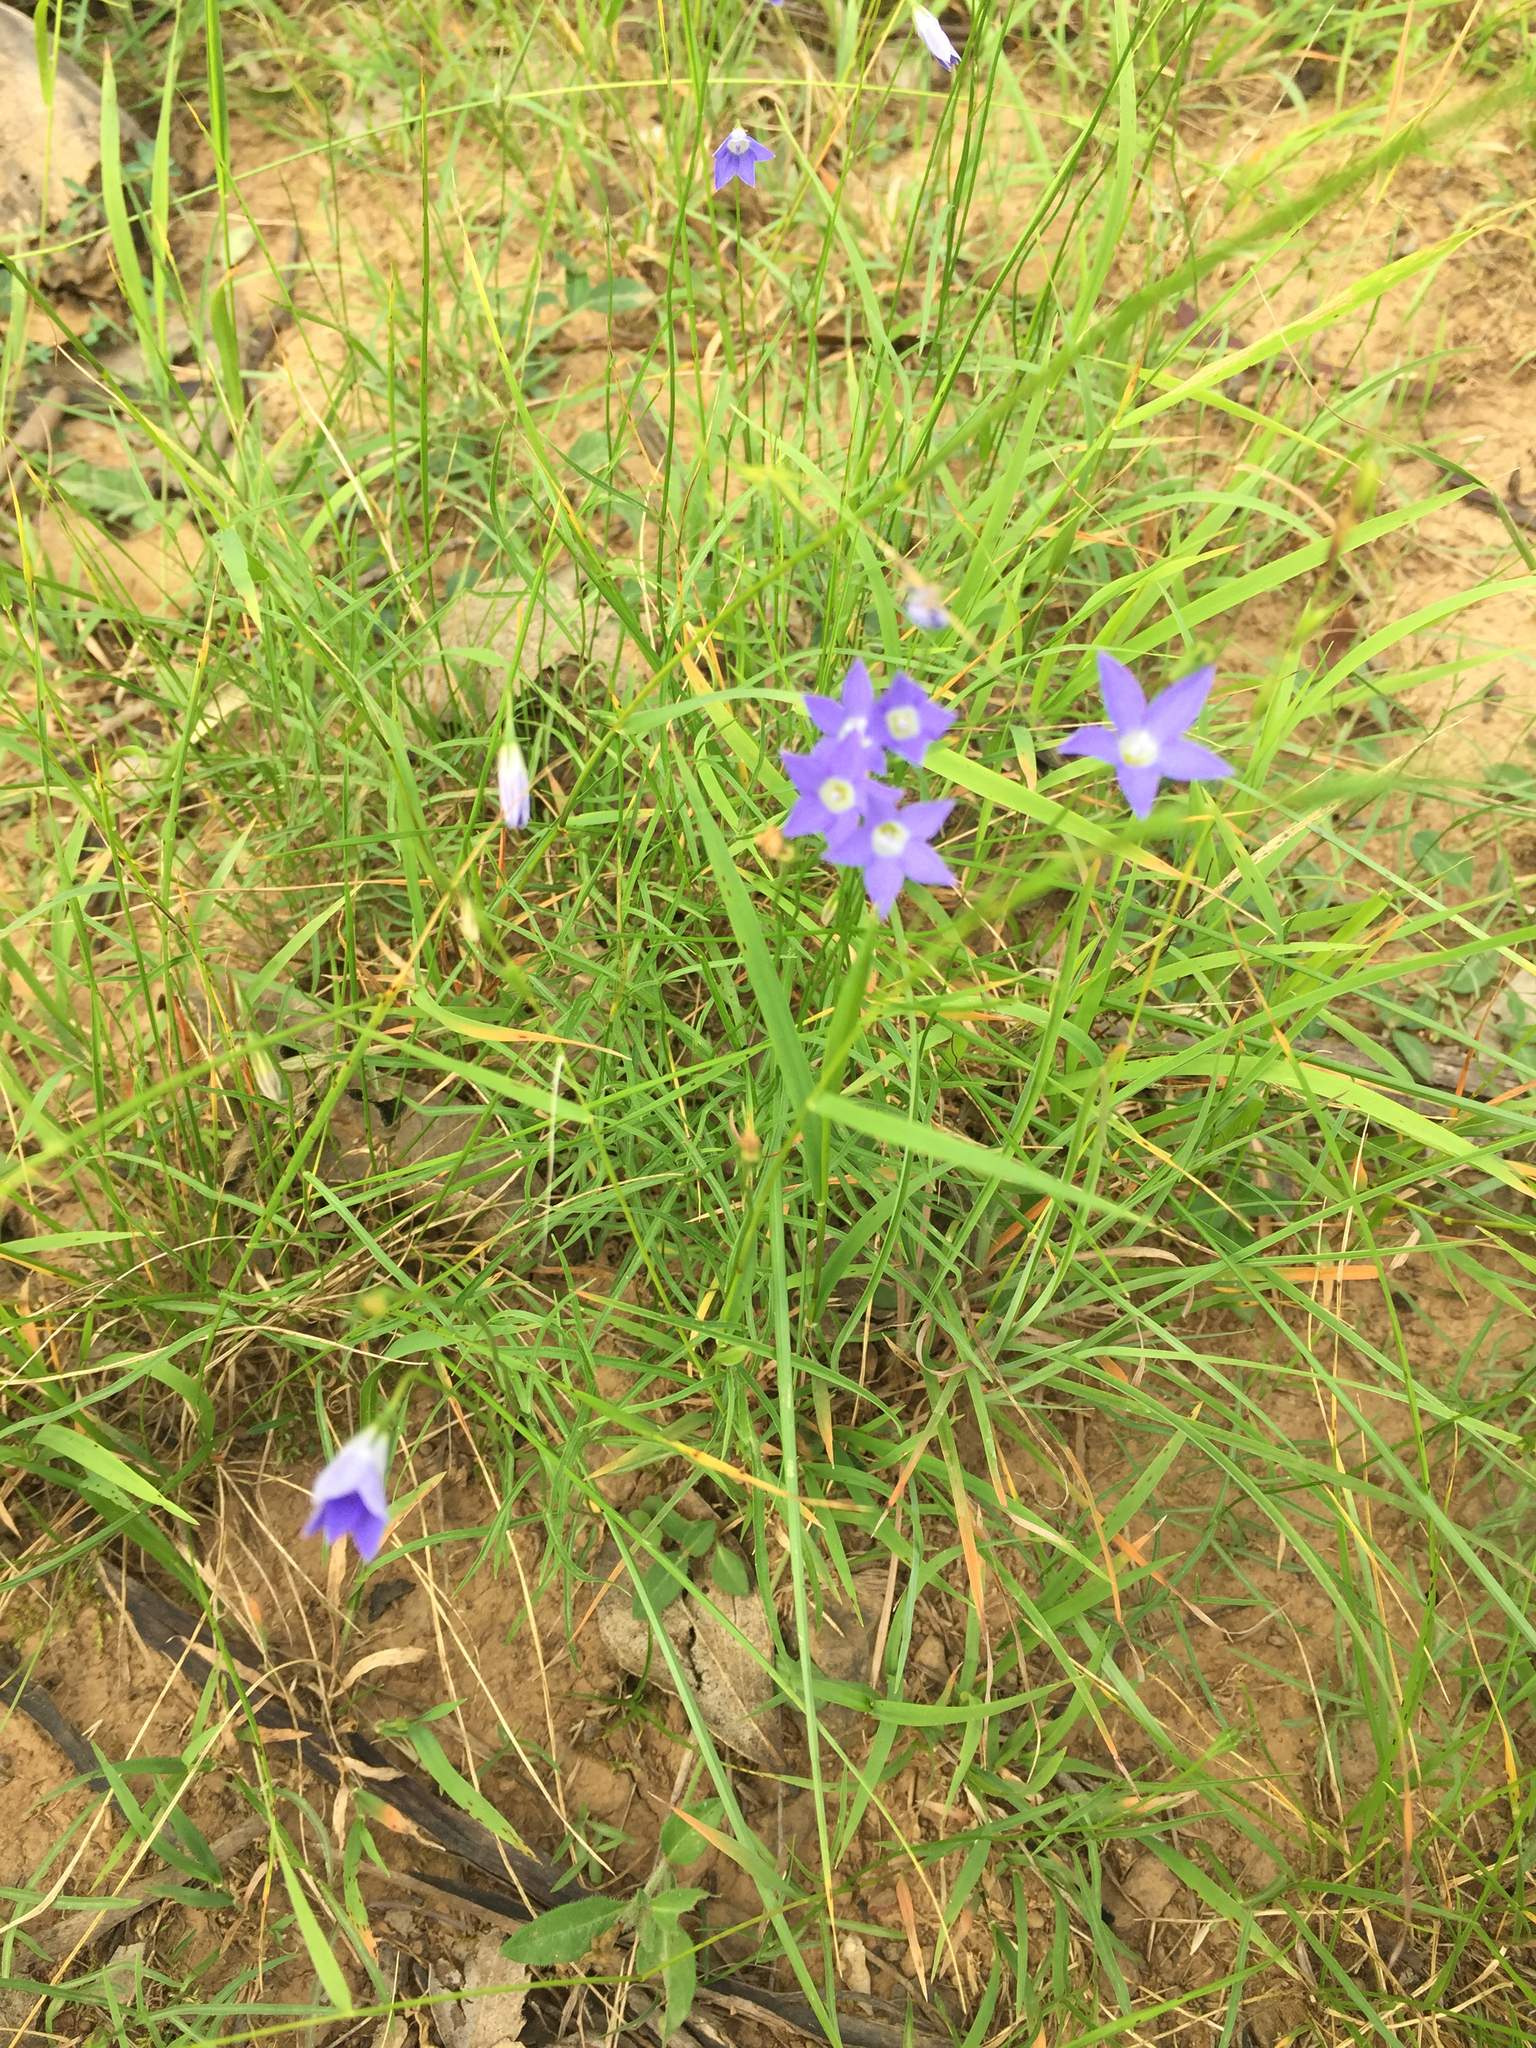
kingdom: Plantae
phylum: Tracheophyta
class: Magnoliopsida
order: Asterales
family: Campanulaceae
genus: Wahlenbergia
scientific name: Wahlenbergia
